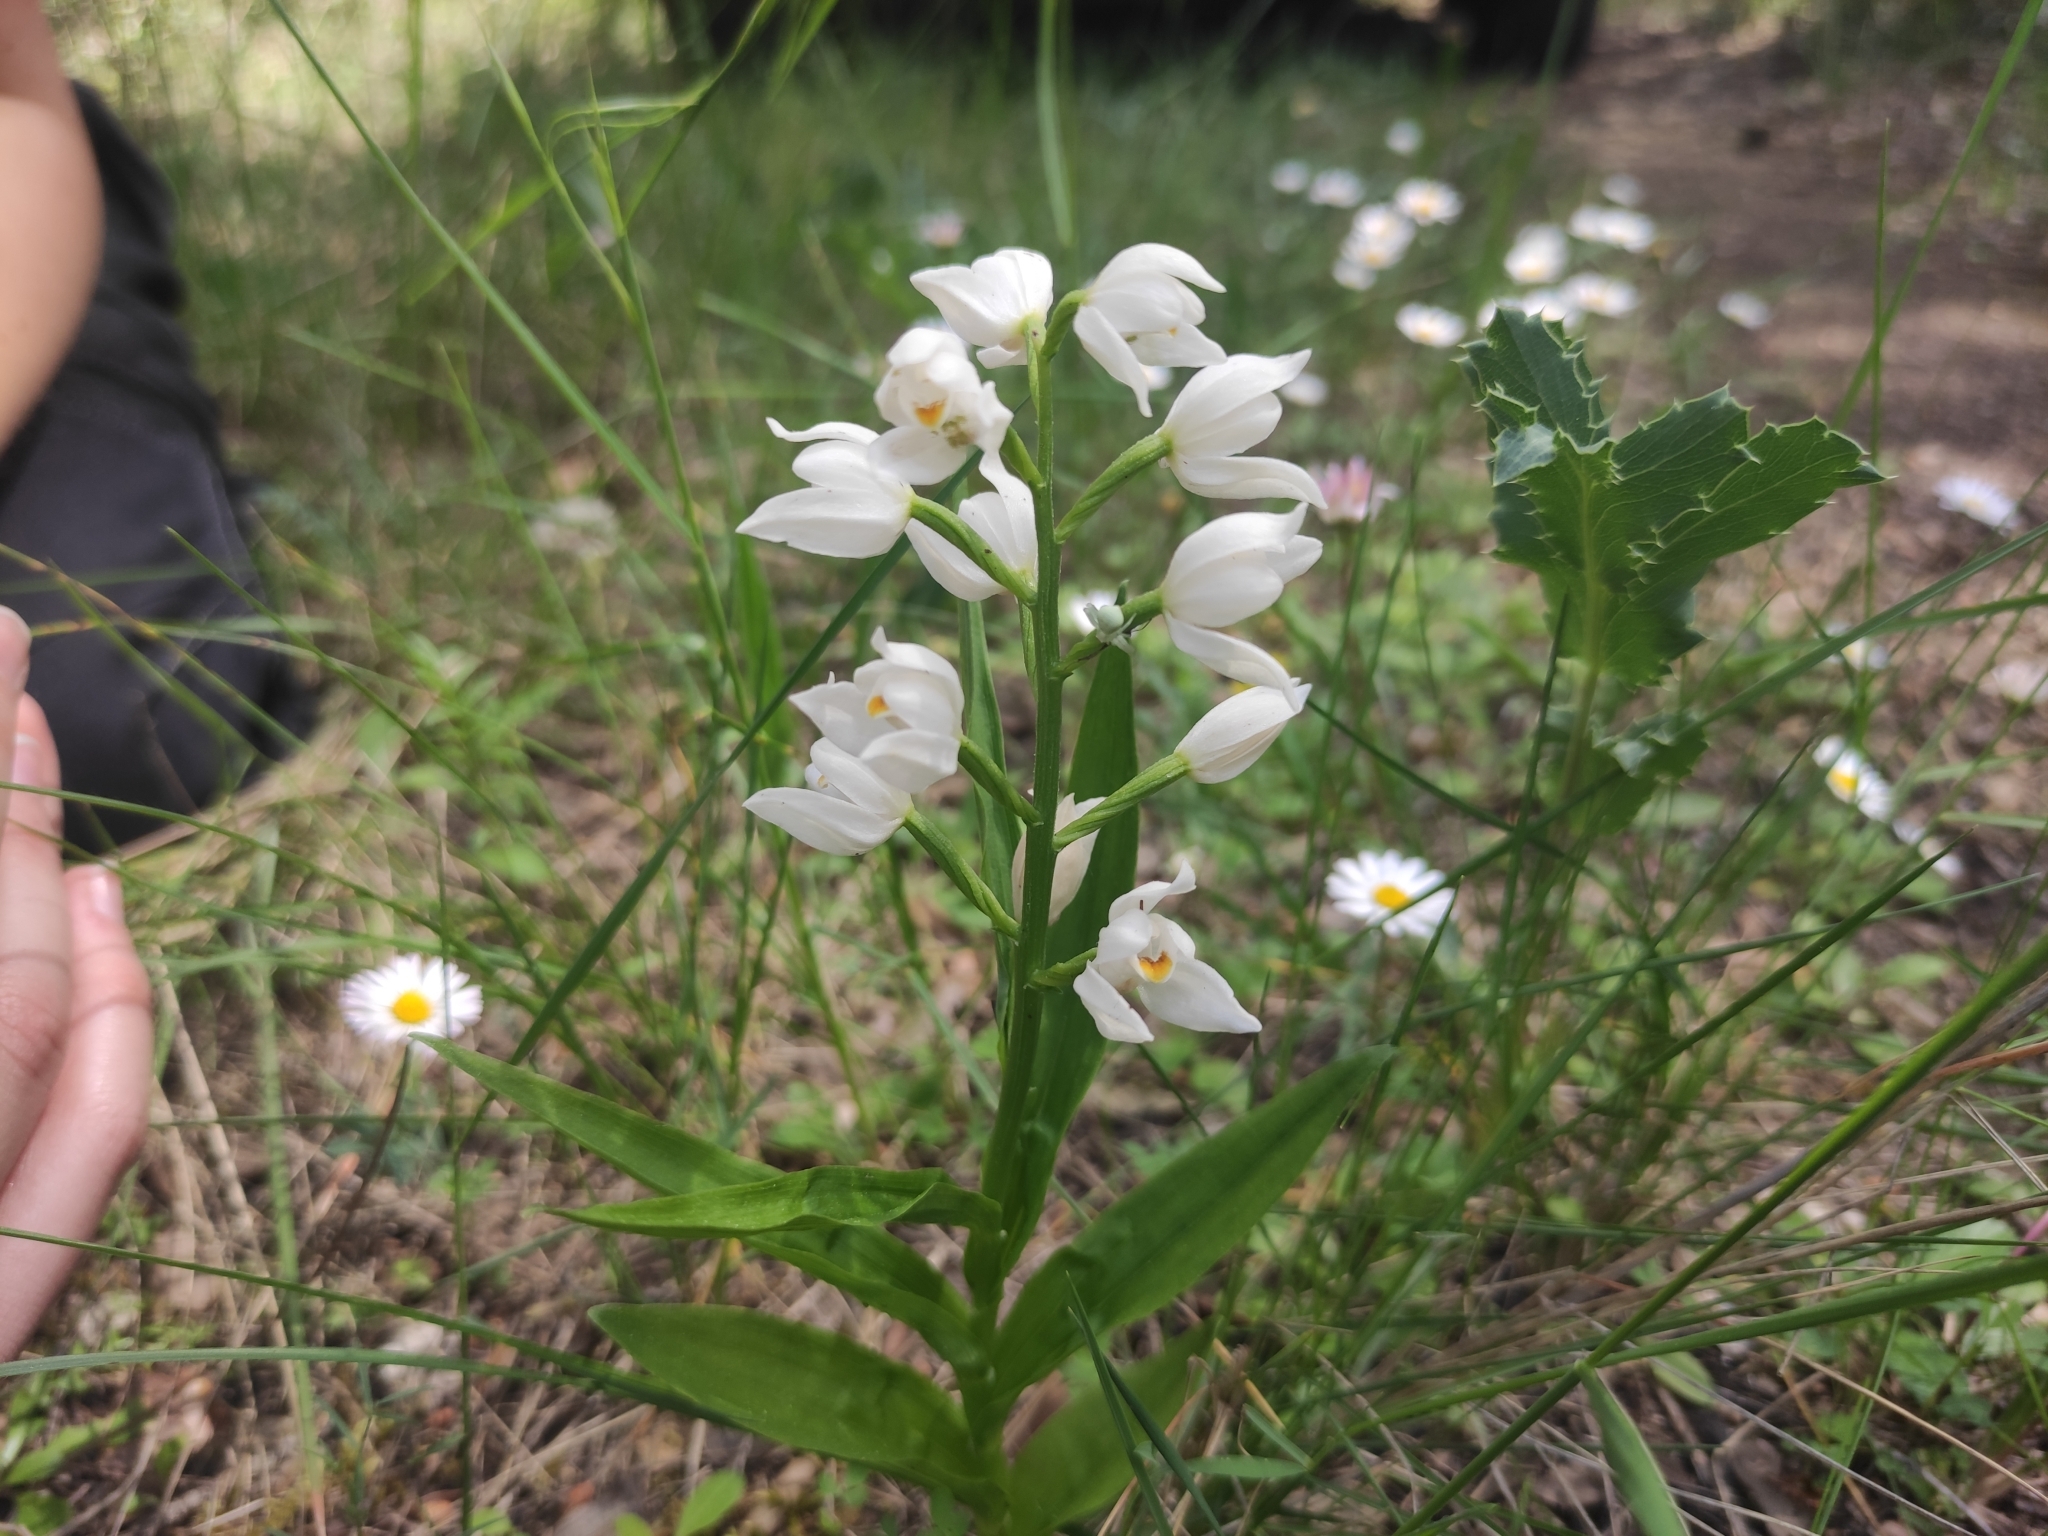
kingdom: Plantae
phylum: Tracheophyta
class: Liliopsida
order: Asparagales
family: Orchidaceae
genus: Cephalanthera
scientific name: Cephalanthera longifolia
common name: Narrow-leaved helleborine
